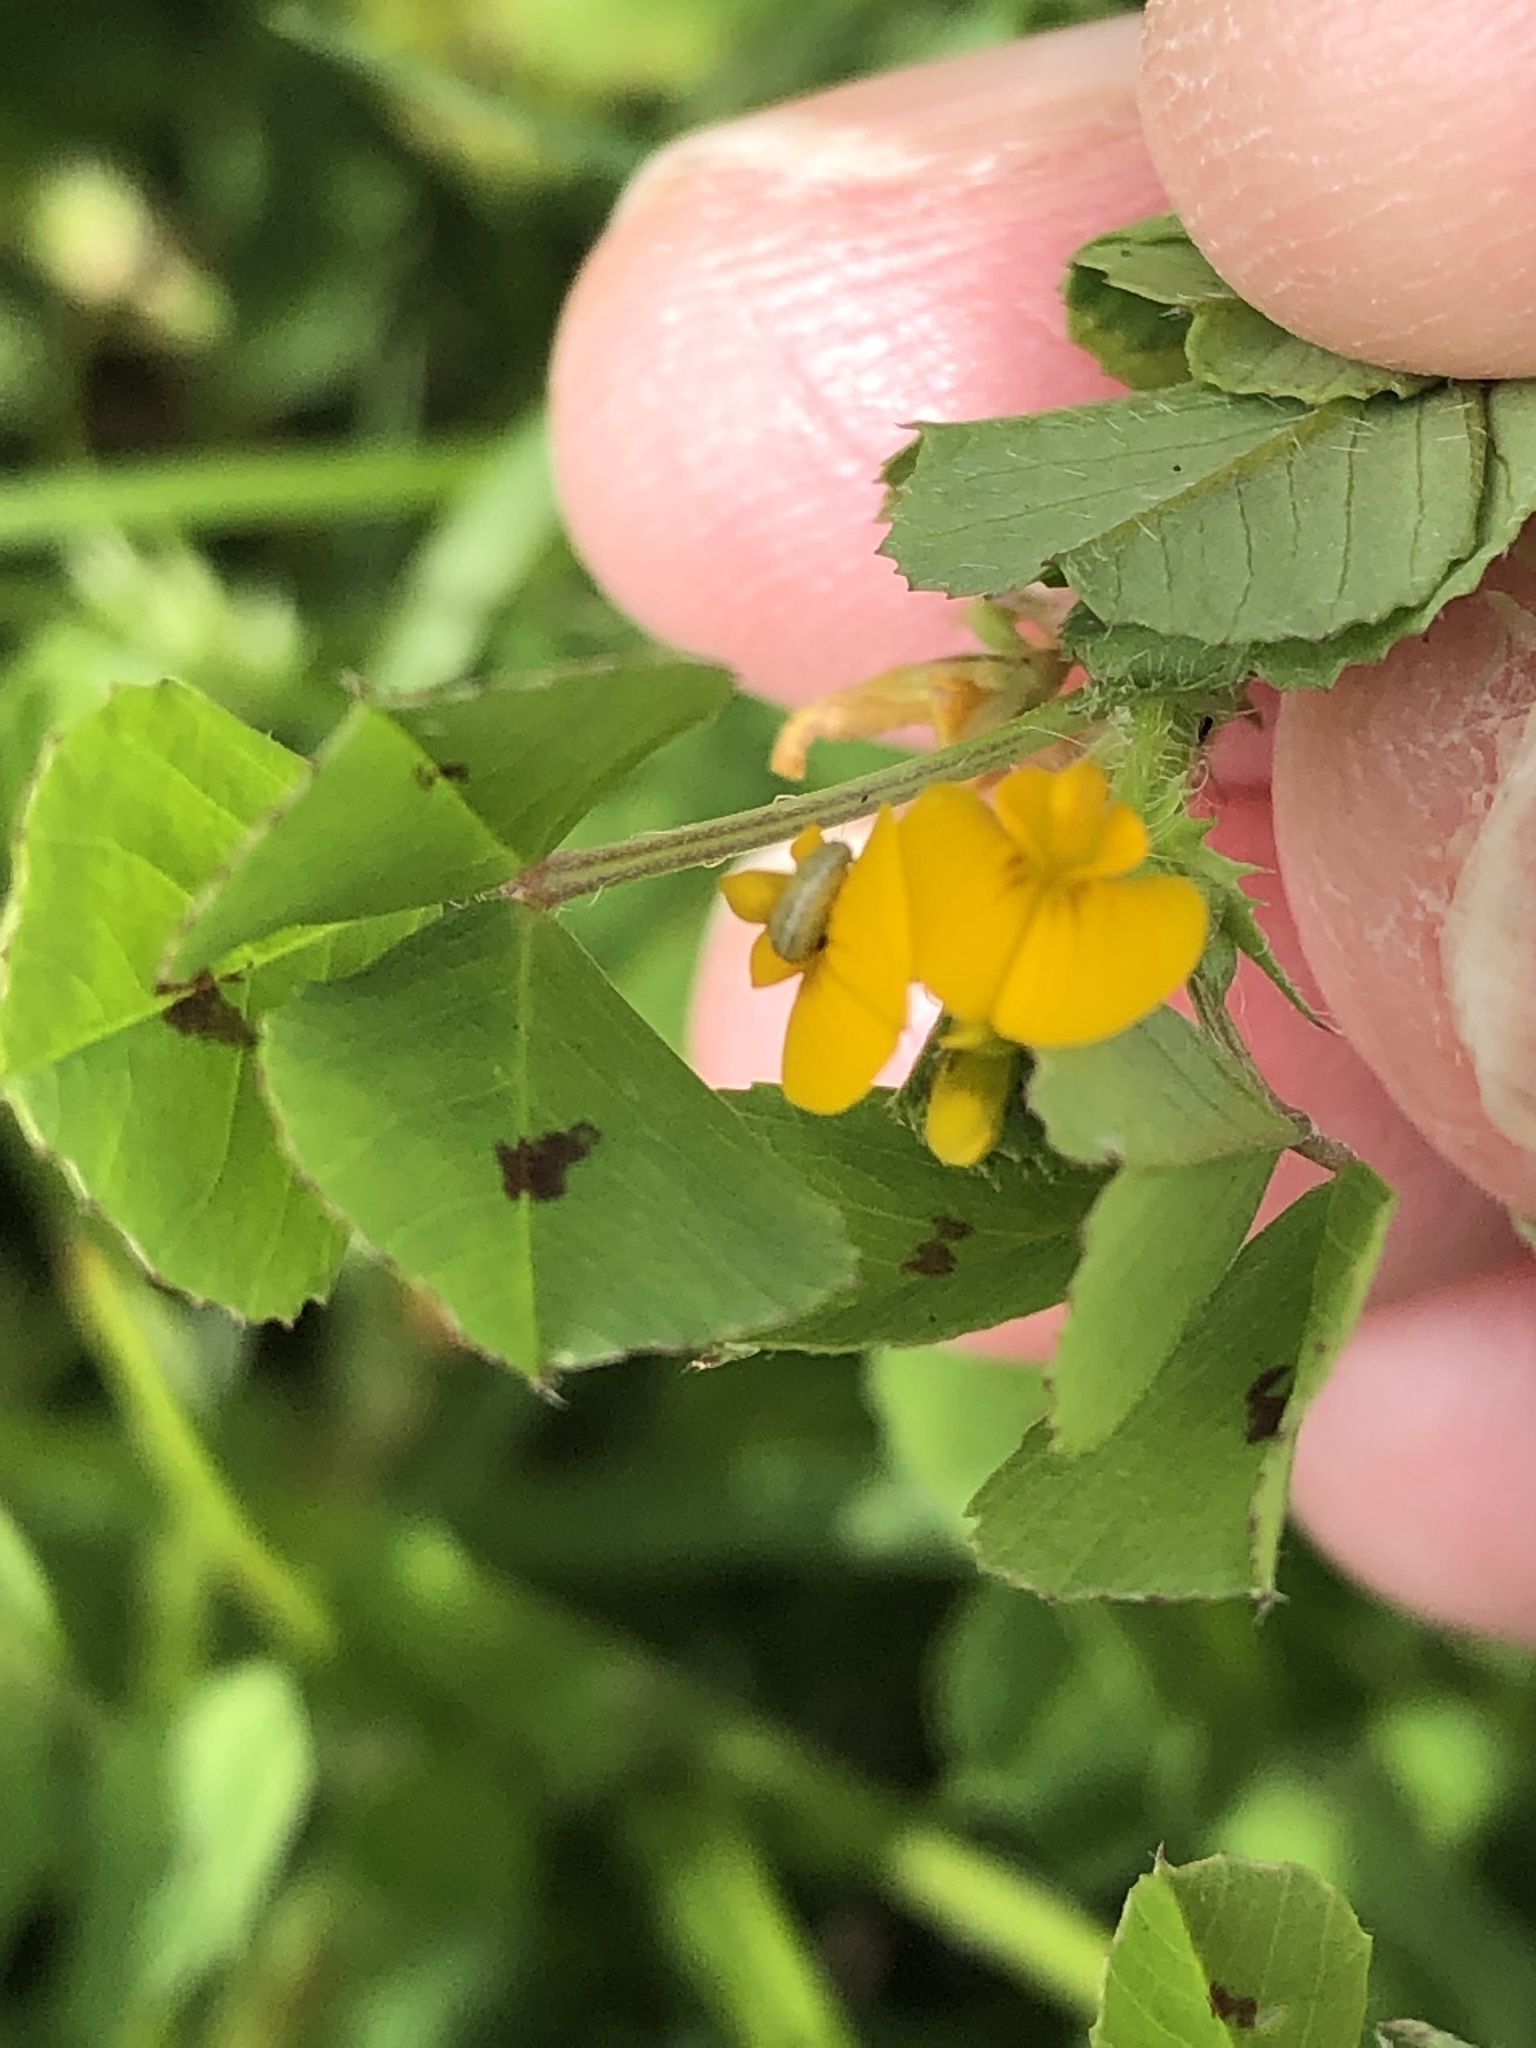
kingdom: Plantae
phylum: Tracheophyta
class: Magnoliopsida
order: Fabales
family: Fabaceae
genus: Medicago
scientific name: Medicago arabica
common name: Spotted medick
